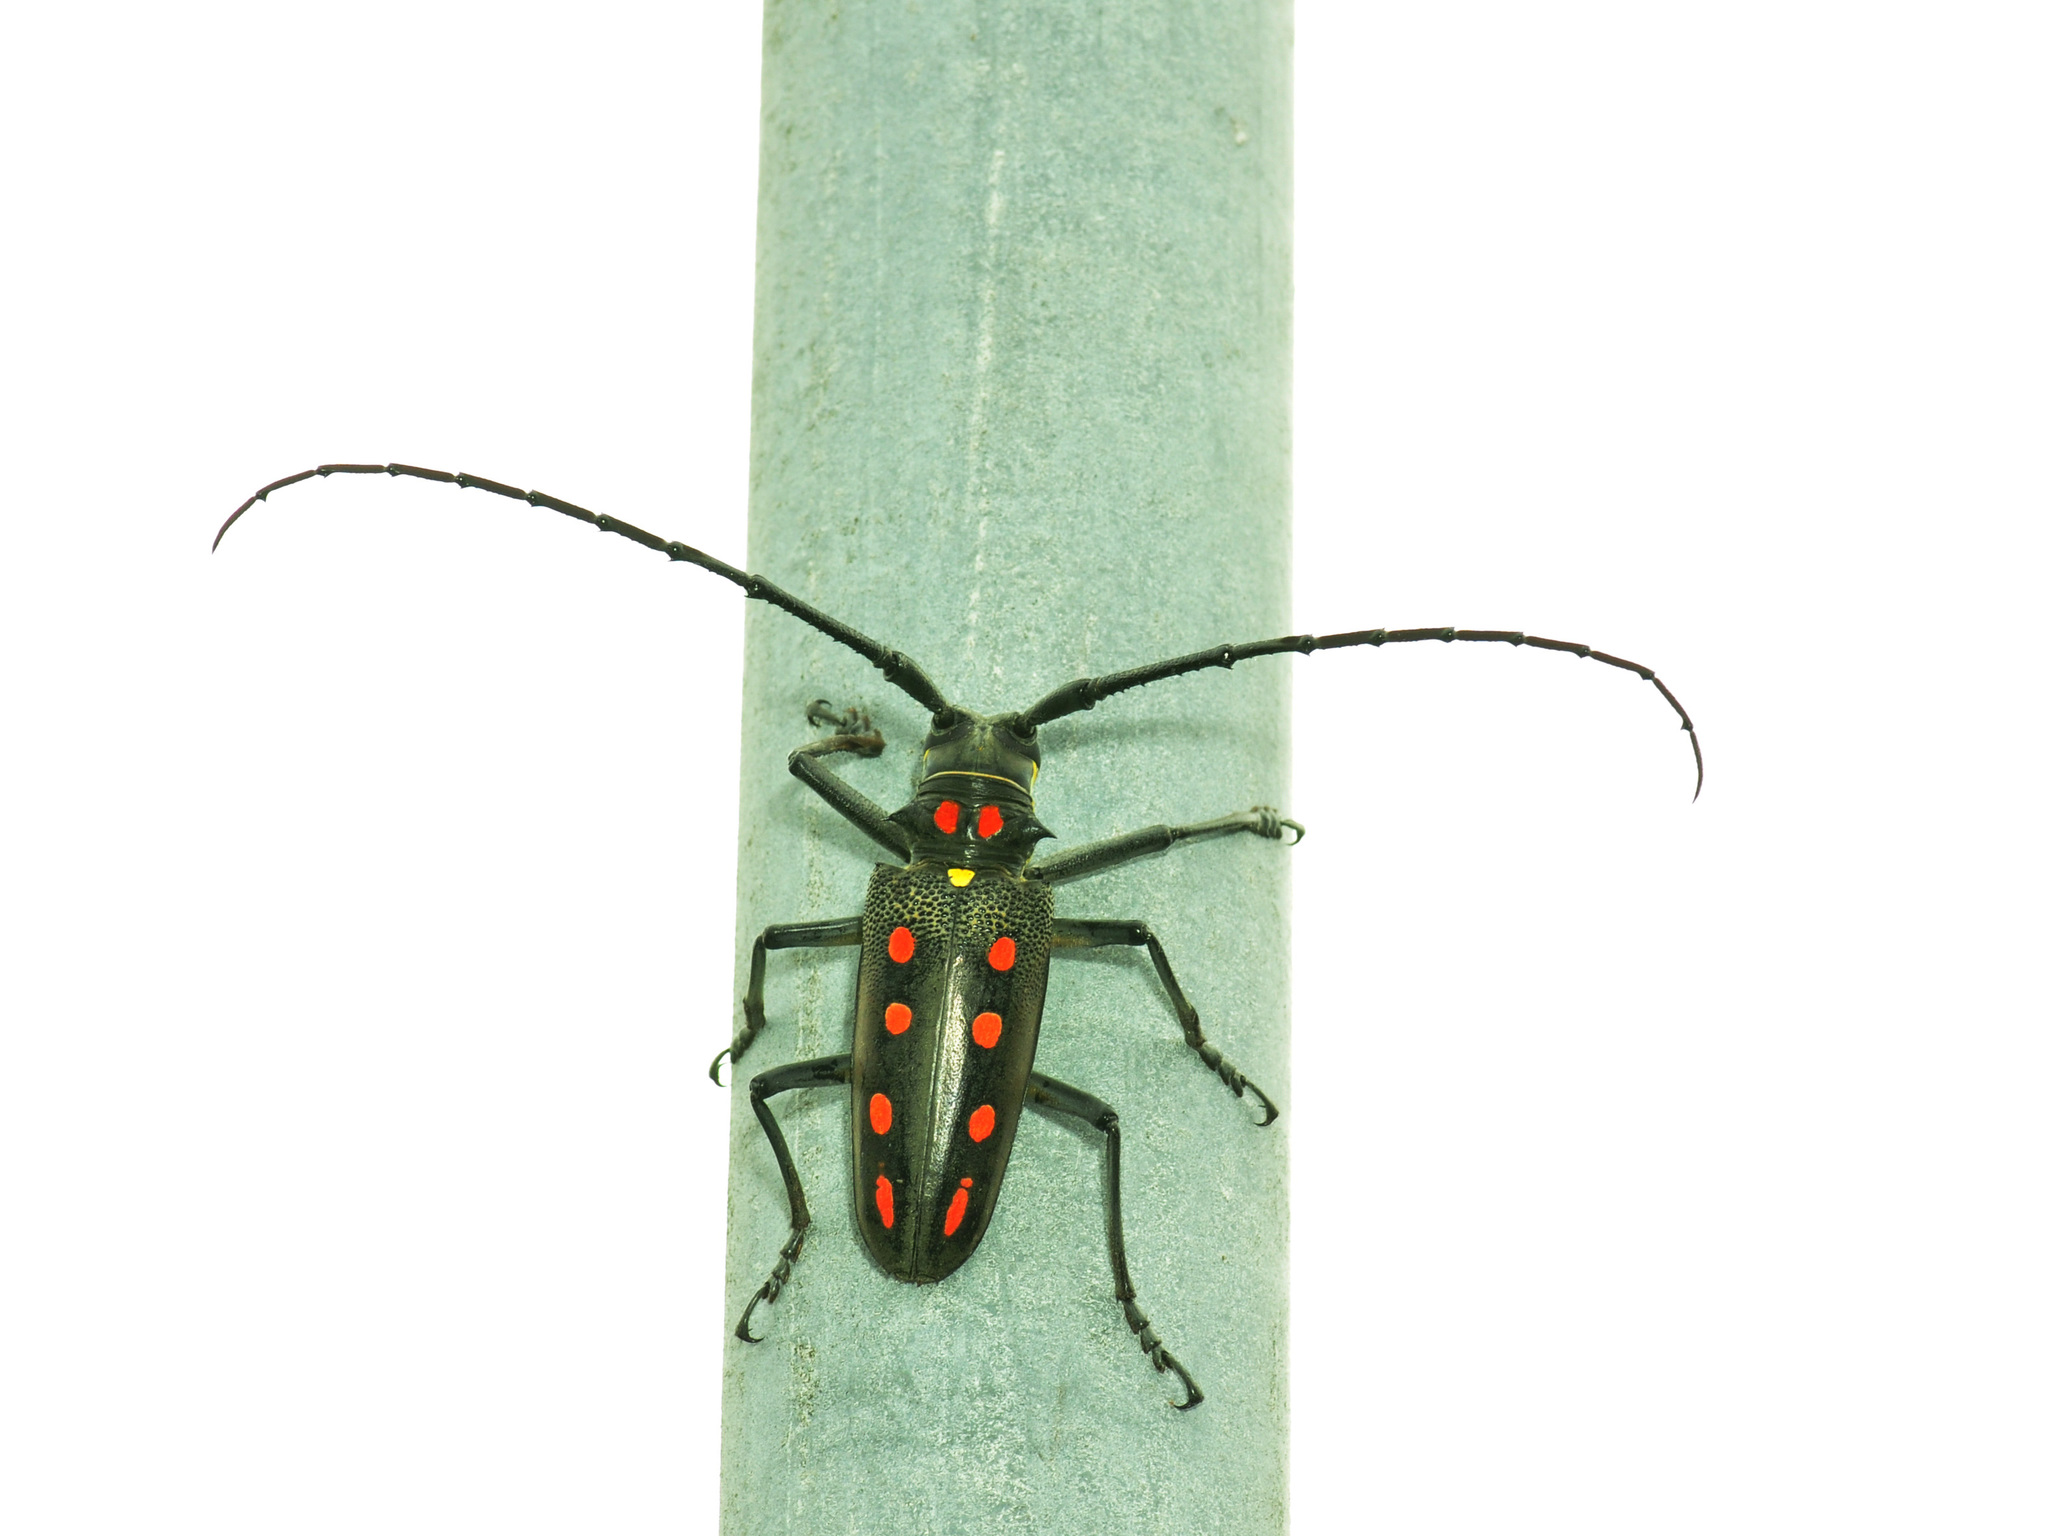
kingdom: Animalia
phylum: Arthropoda
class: Insecta
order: Coleoptera
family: Cerambycidae
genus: Batocera
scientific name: Batocera parryi
